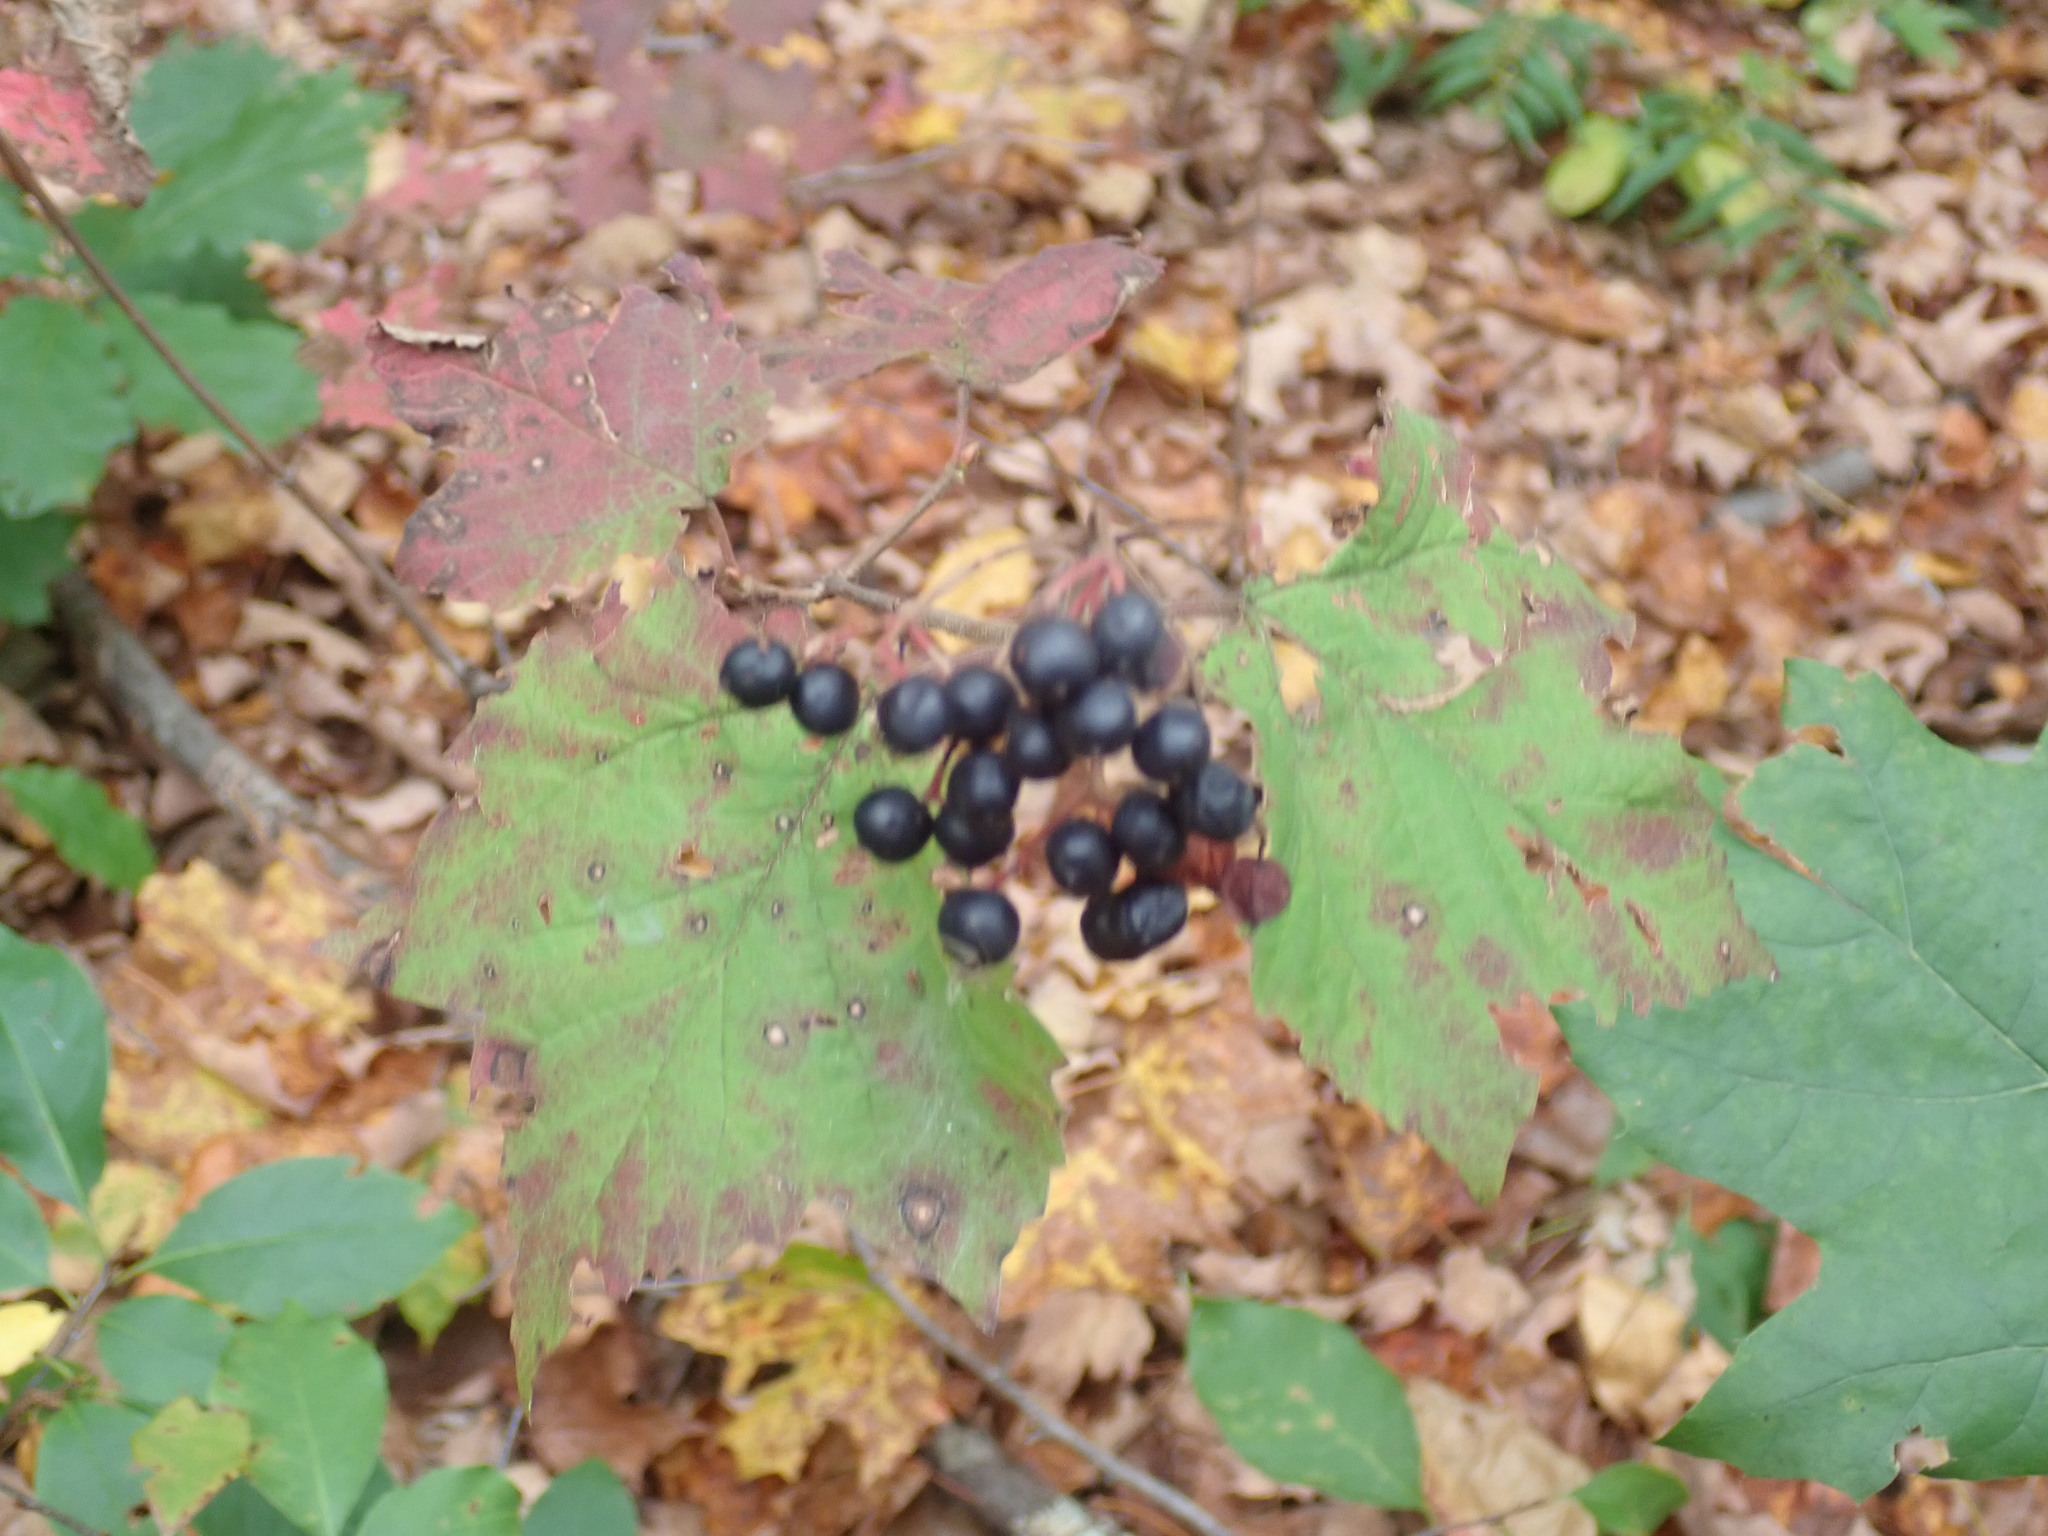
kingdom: Plantae
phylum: Tracheophyta
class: Magnoliopsida
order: Dipsacales
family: Viburnaceae
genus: Viburnum
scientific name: Viburnum acerifolium
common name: Dockmackie
